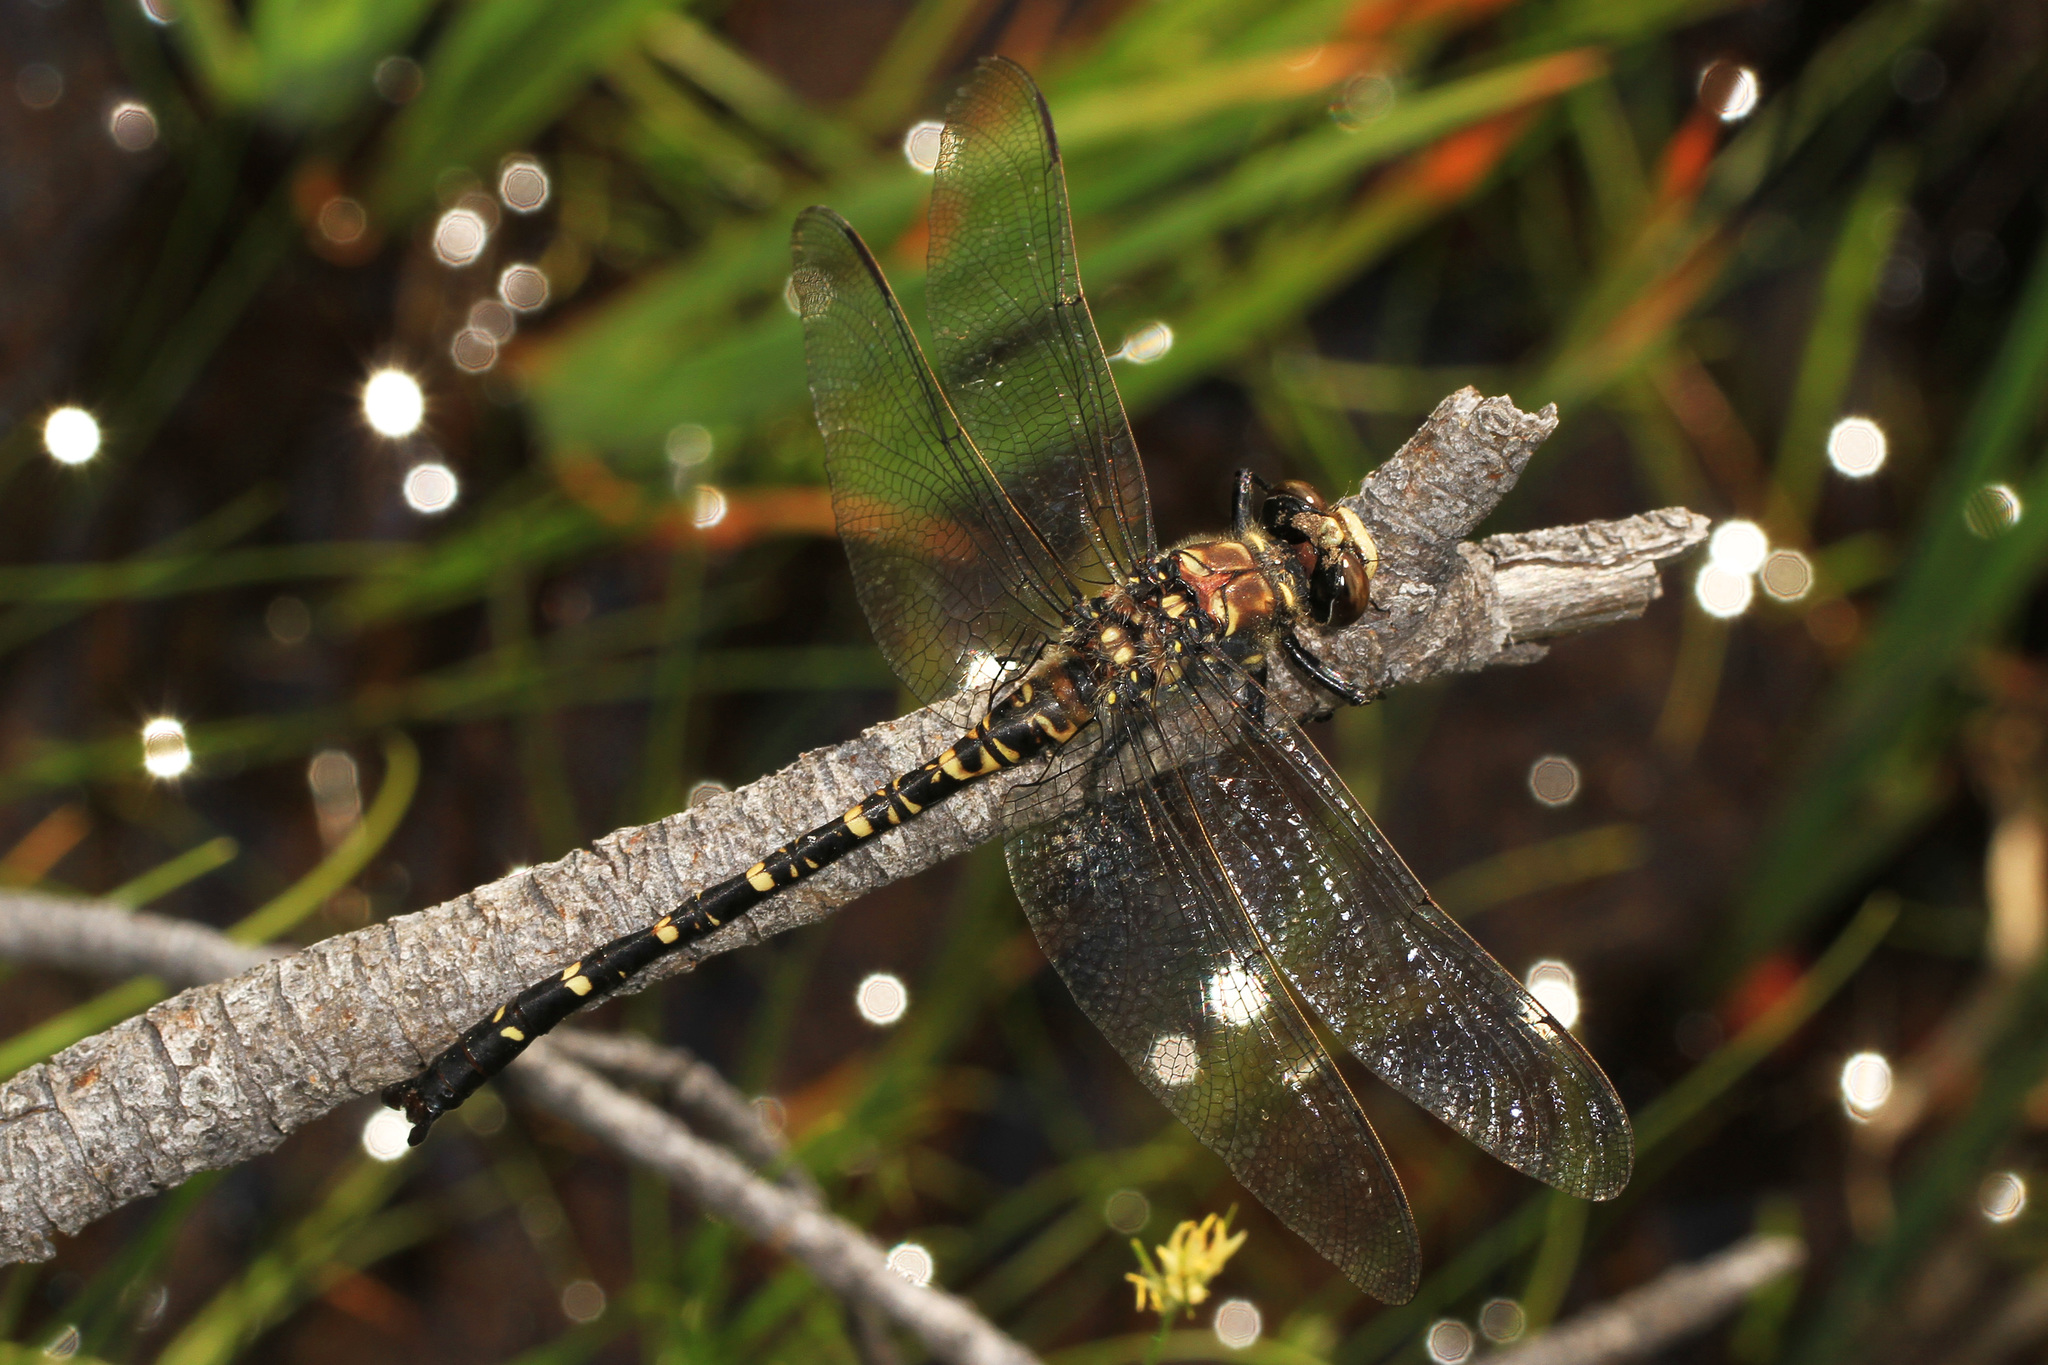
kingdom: Animalia
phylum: Arthropoda
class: Insecta
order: Odonata
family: Petaluridae
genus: Tanypteryx
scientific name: Tanypteryx hageni
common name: Black petaltail
